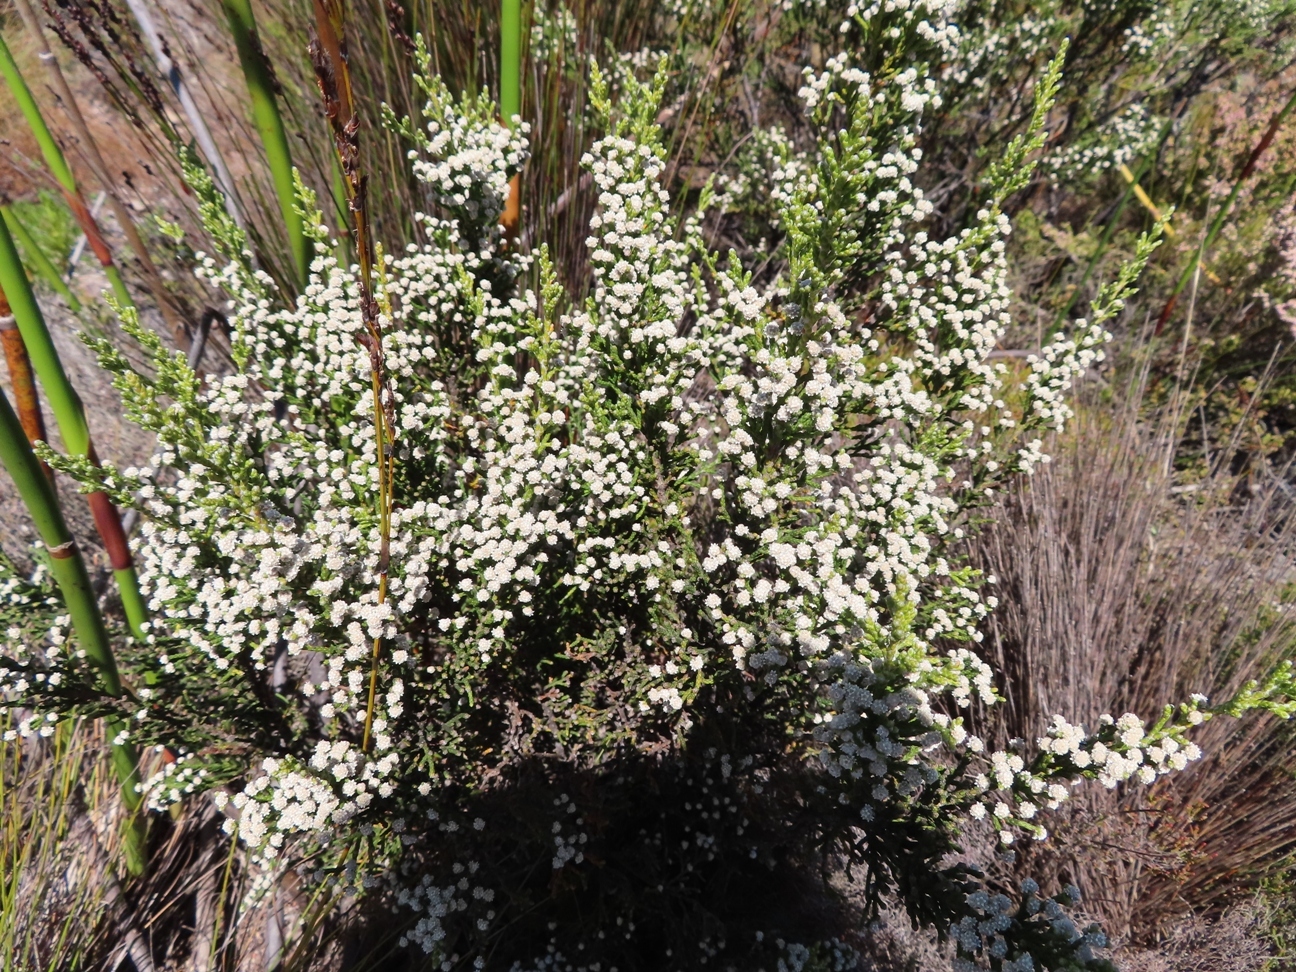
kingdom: Plantae
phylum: Tracheophyta
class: Magnoliopsida
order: Bruniales
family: Bruniaceae
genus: Brunia
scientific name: Brunia microphylla
